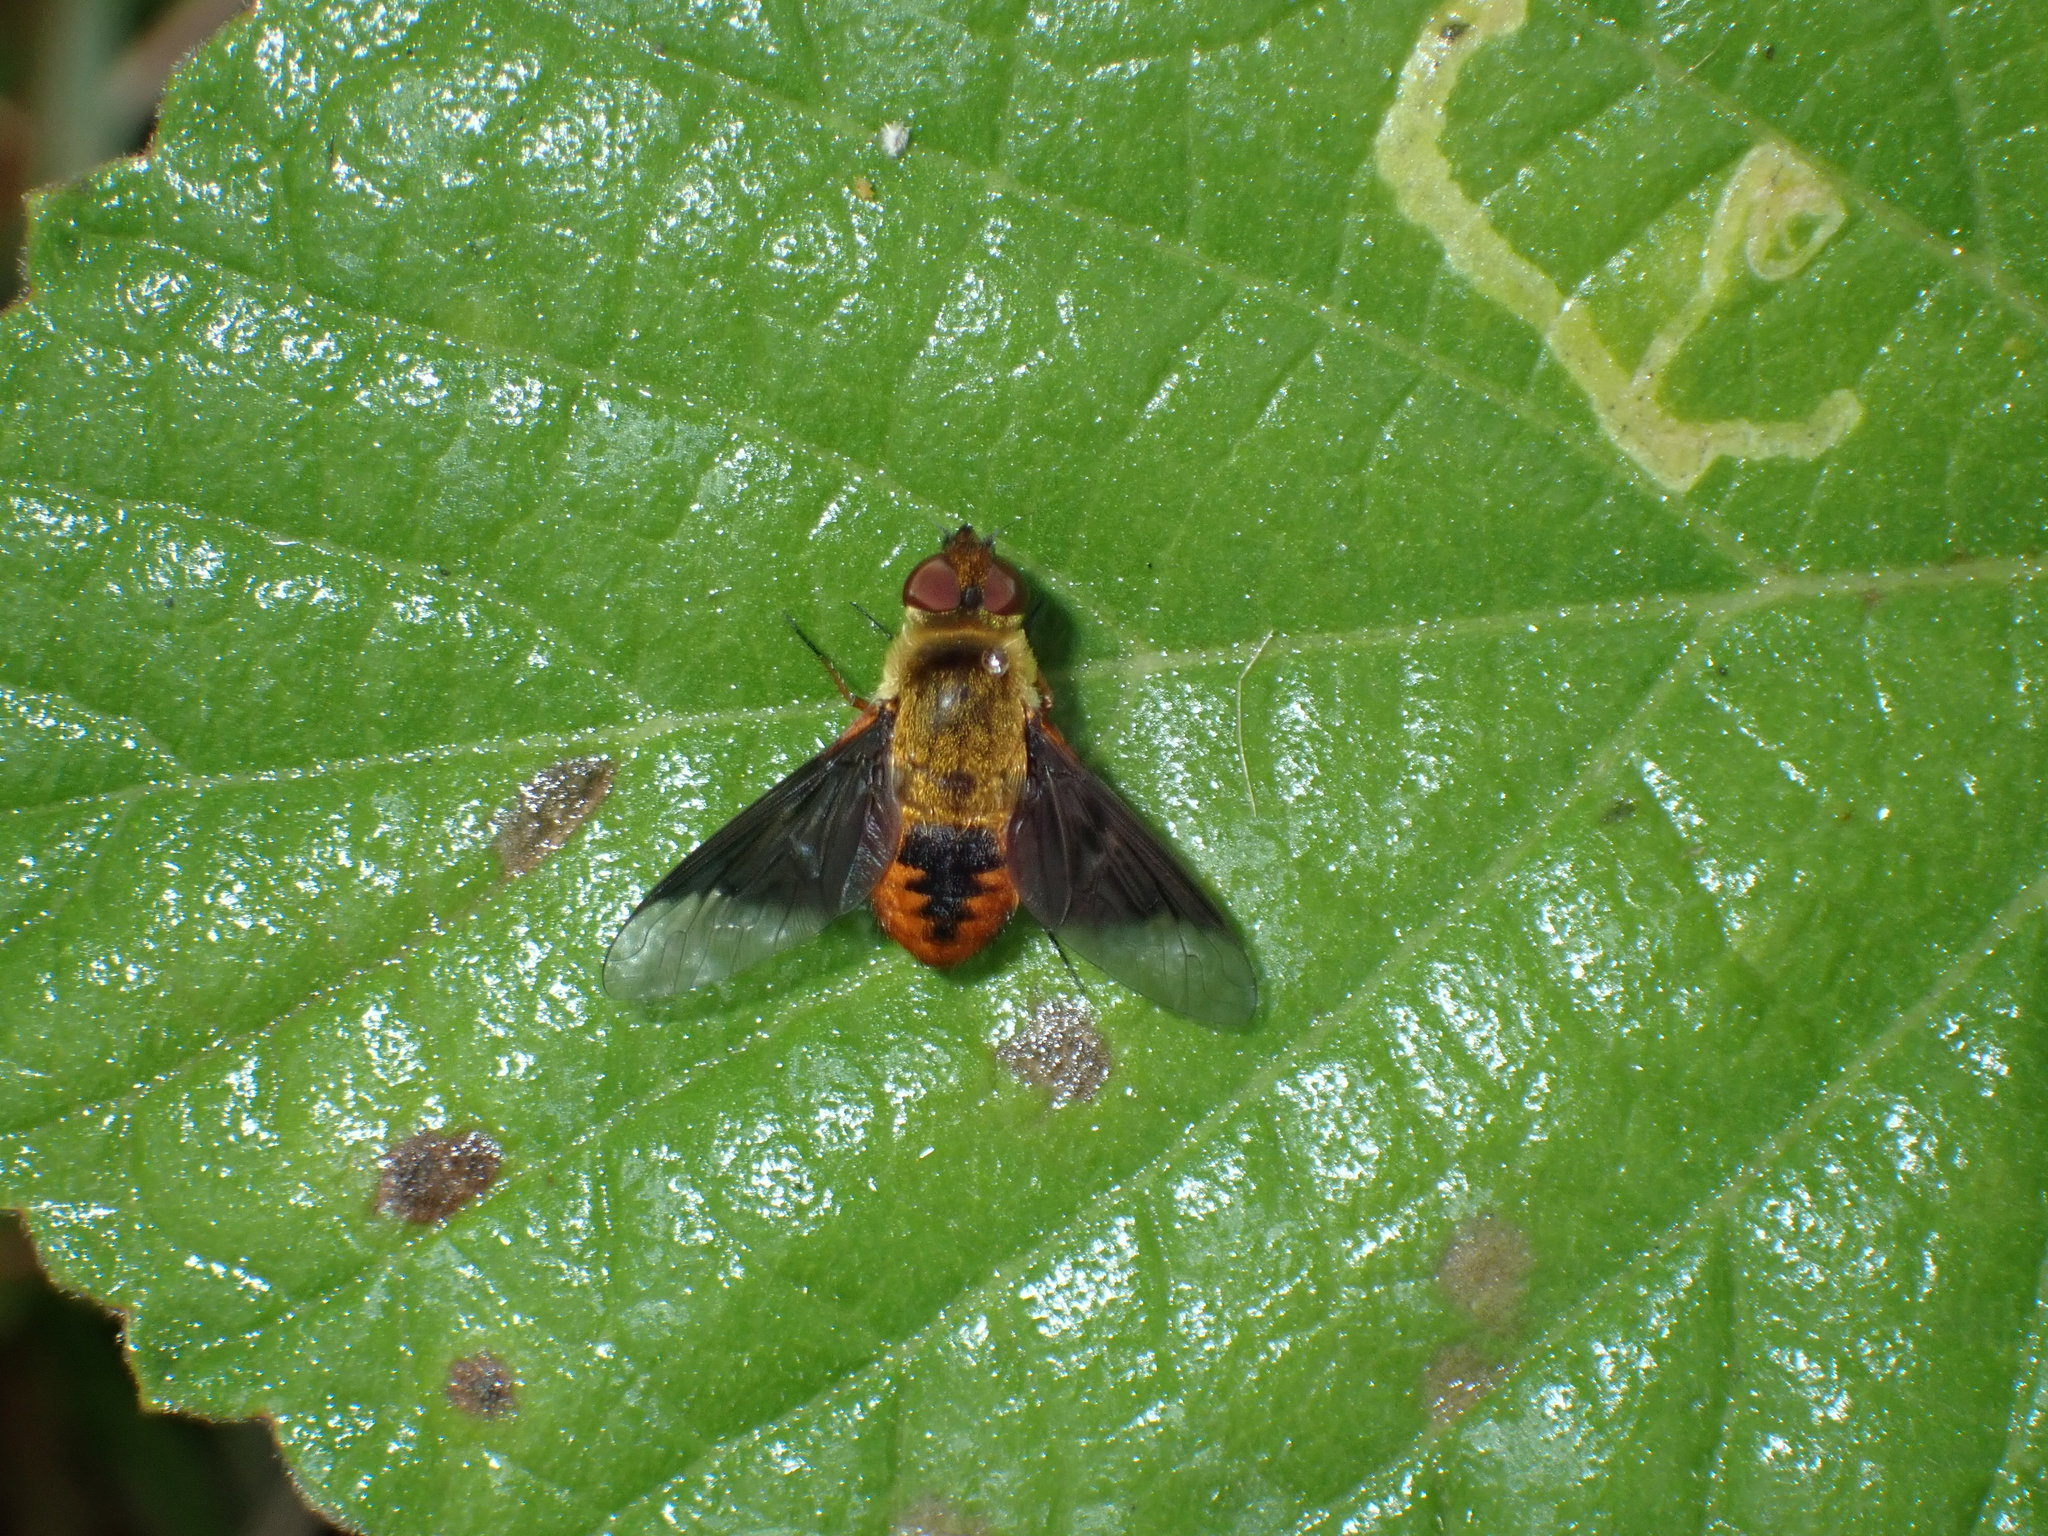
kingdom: Animalia
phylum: Arthropoda
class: Insecta
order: Diptera
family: Bombyliidae
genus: Chrysanthrax
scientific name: Chrysanthrax cypris
